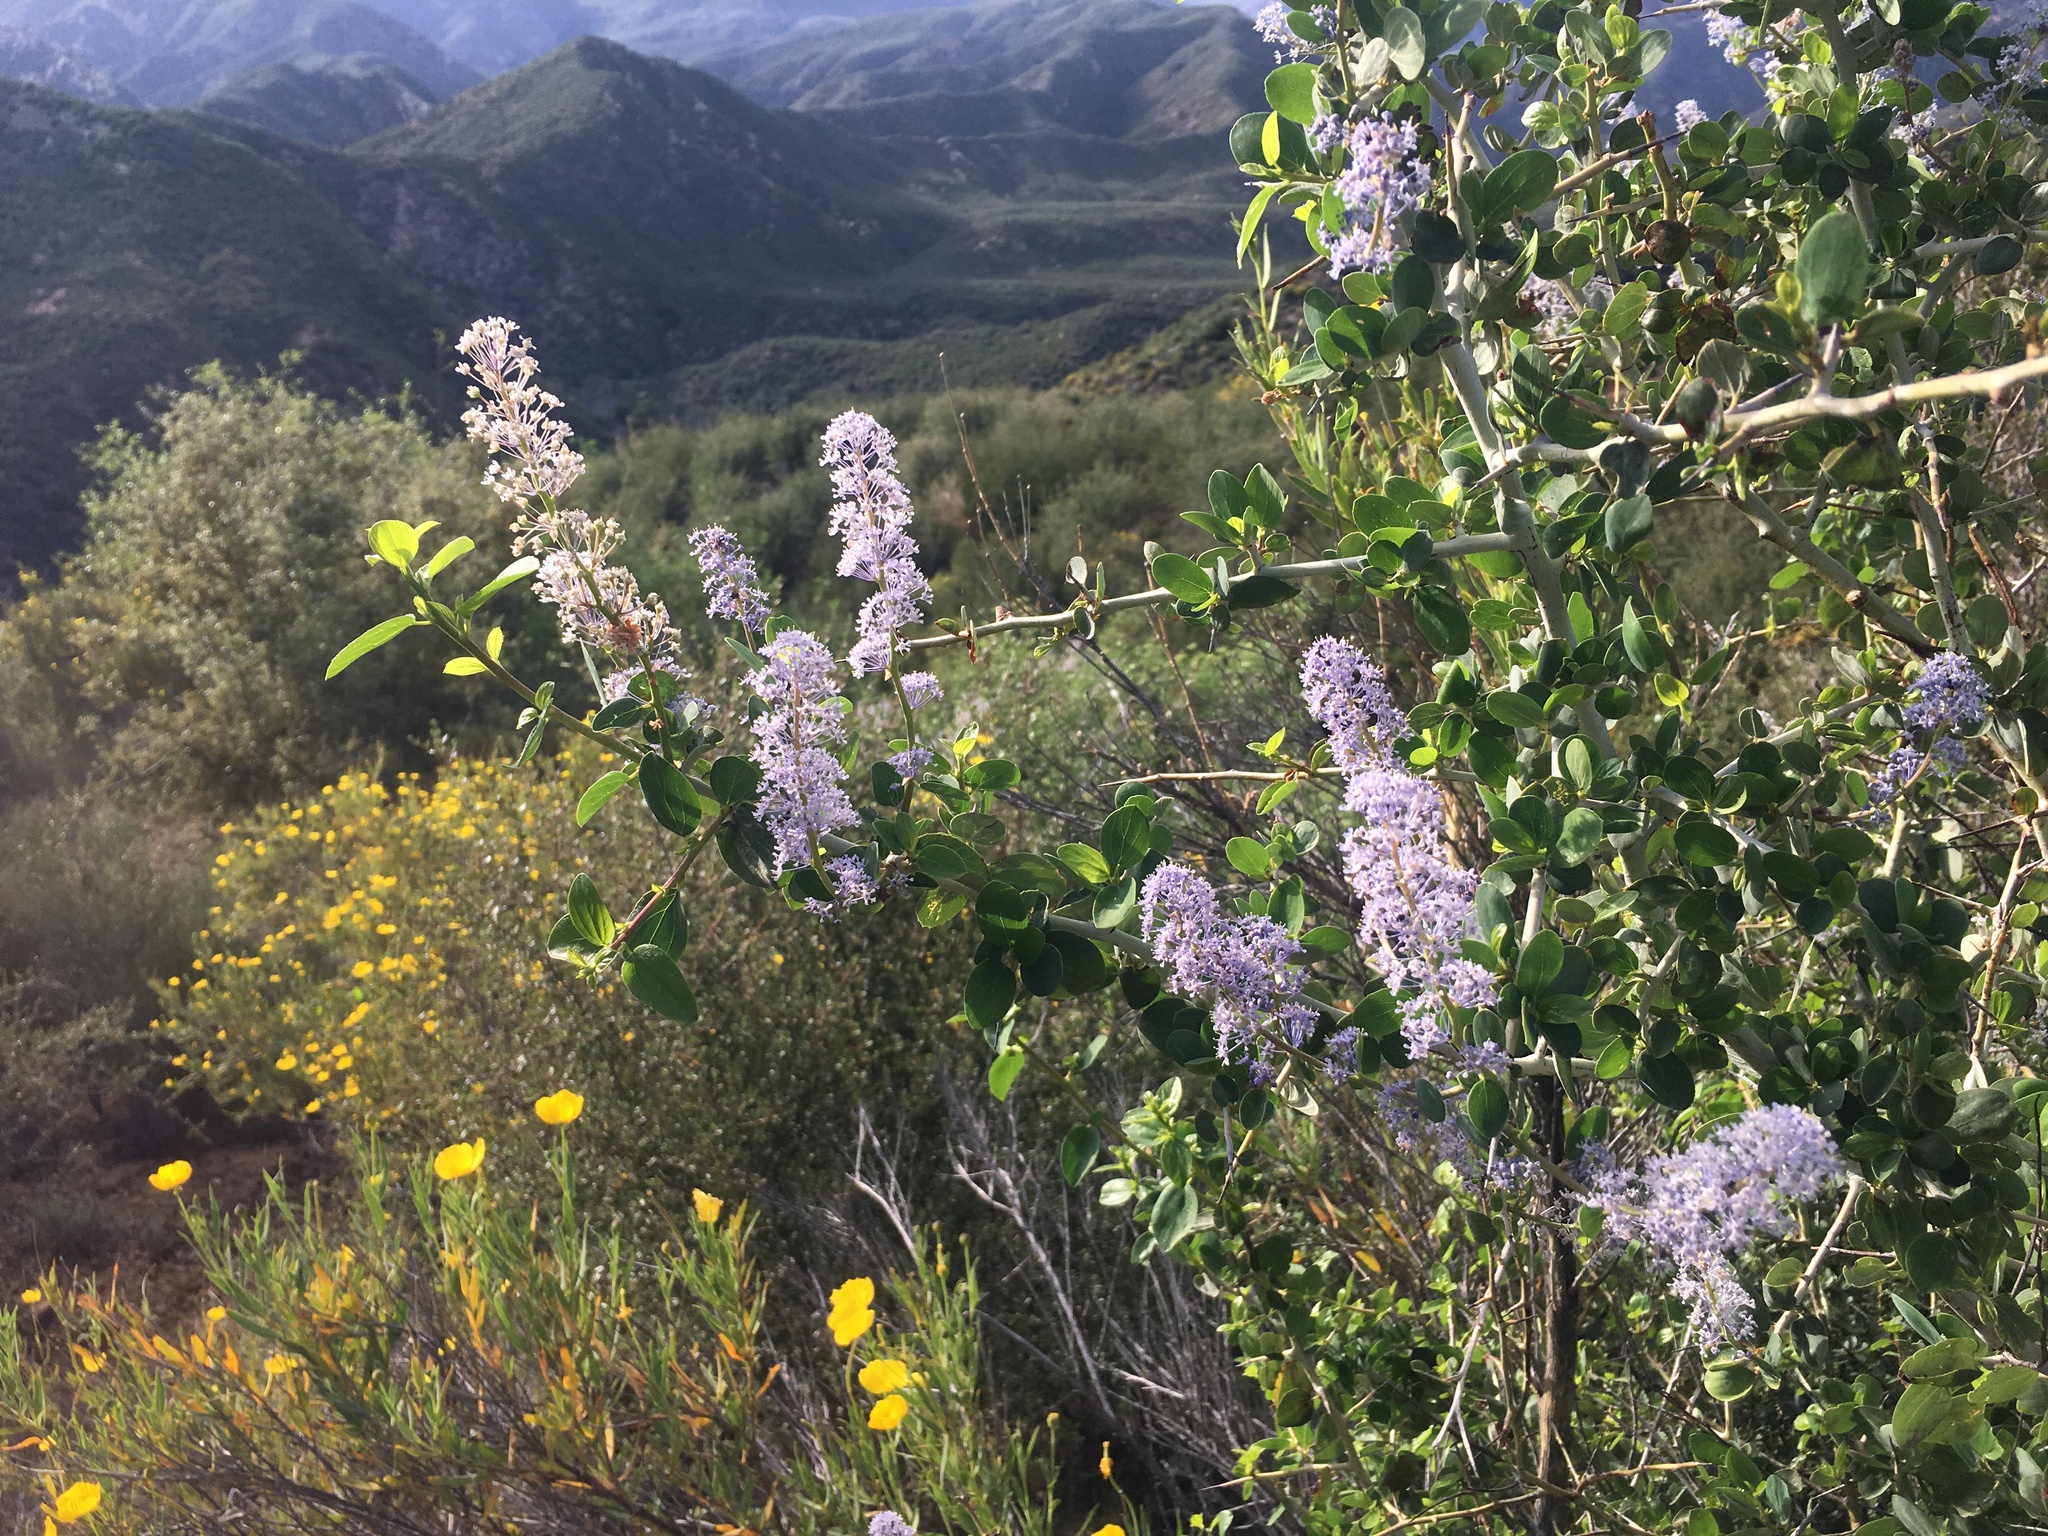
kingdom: Plantae
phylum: Tracheophyta
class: Magnoliopsida
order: Rosales
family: Rhamnaceae
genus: Ceanothus
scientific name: Ceanothus leucodermis
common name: Chaparral whitethorn
